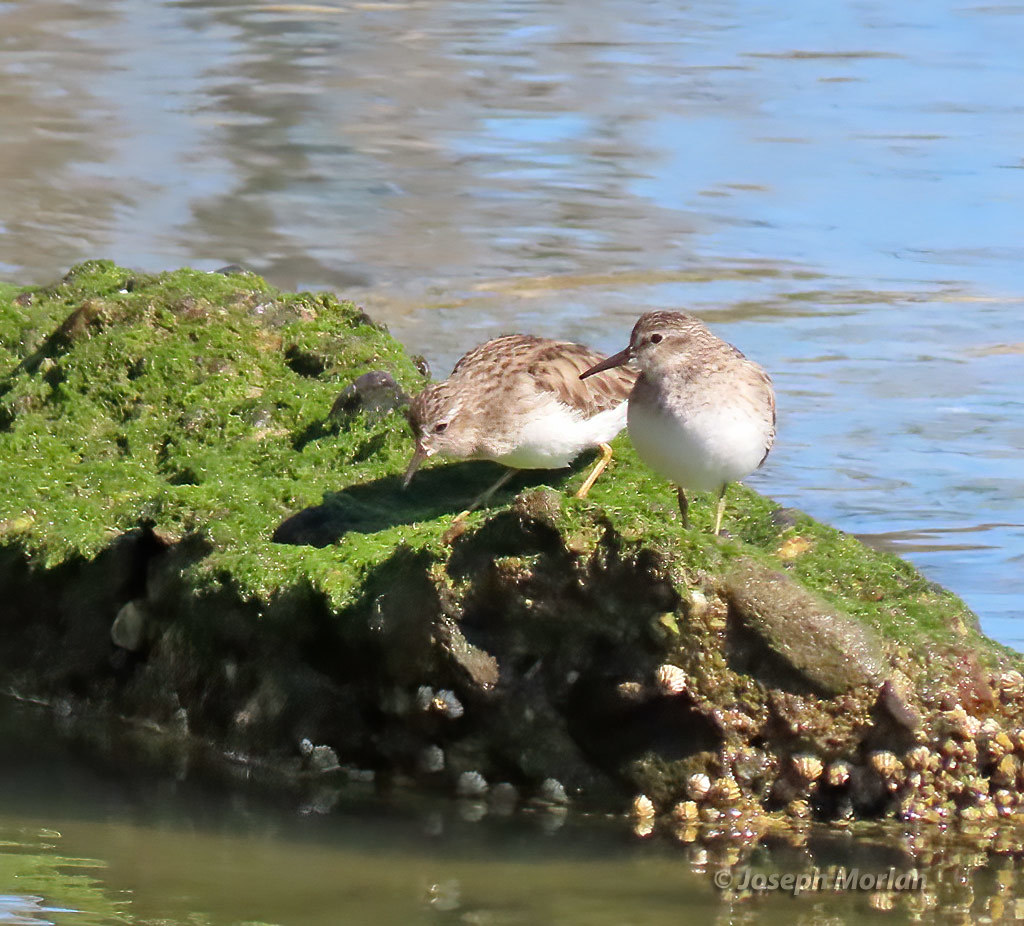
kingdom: Animalia
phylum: Chordata
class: Aves
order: Charadriiformes
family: Scolopacidae
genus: Calidris
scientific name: Calidris minutilla
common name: Least sandpiper
